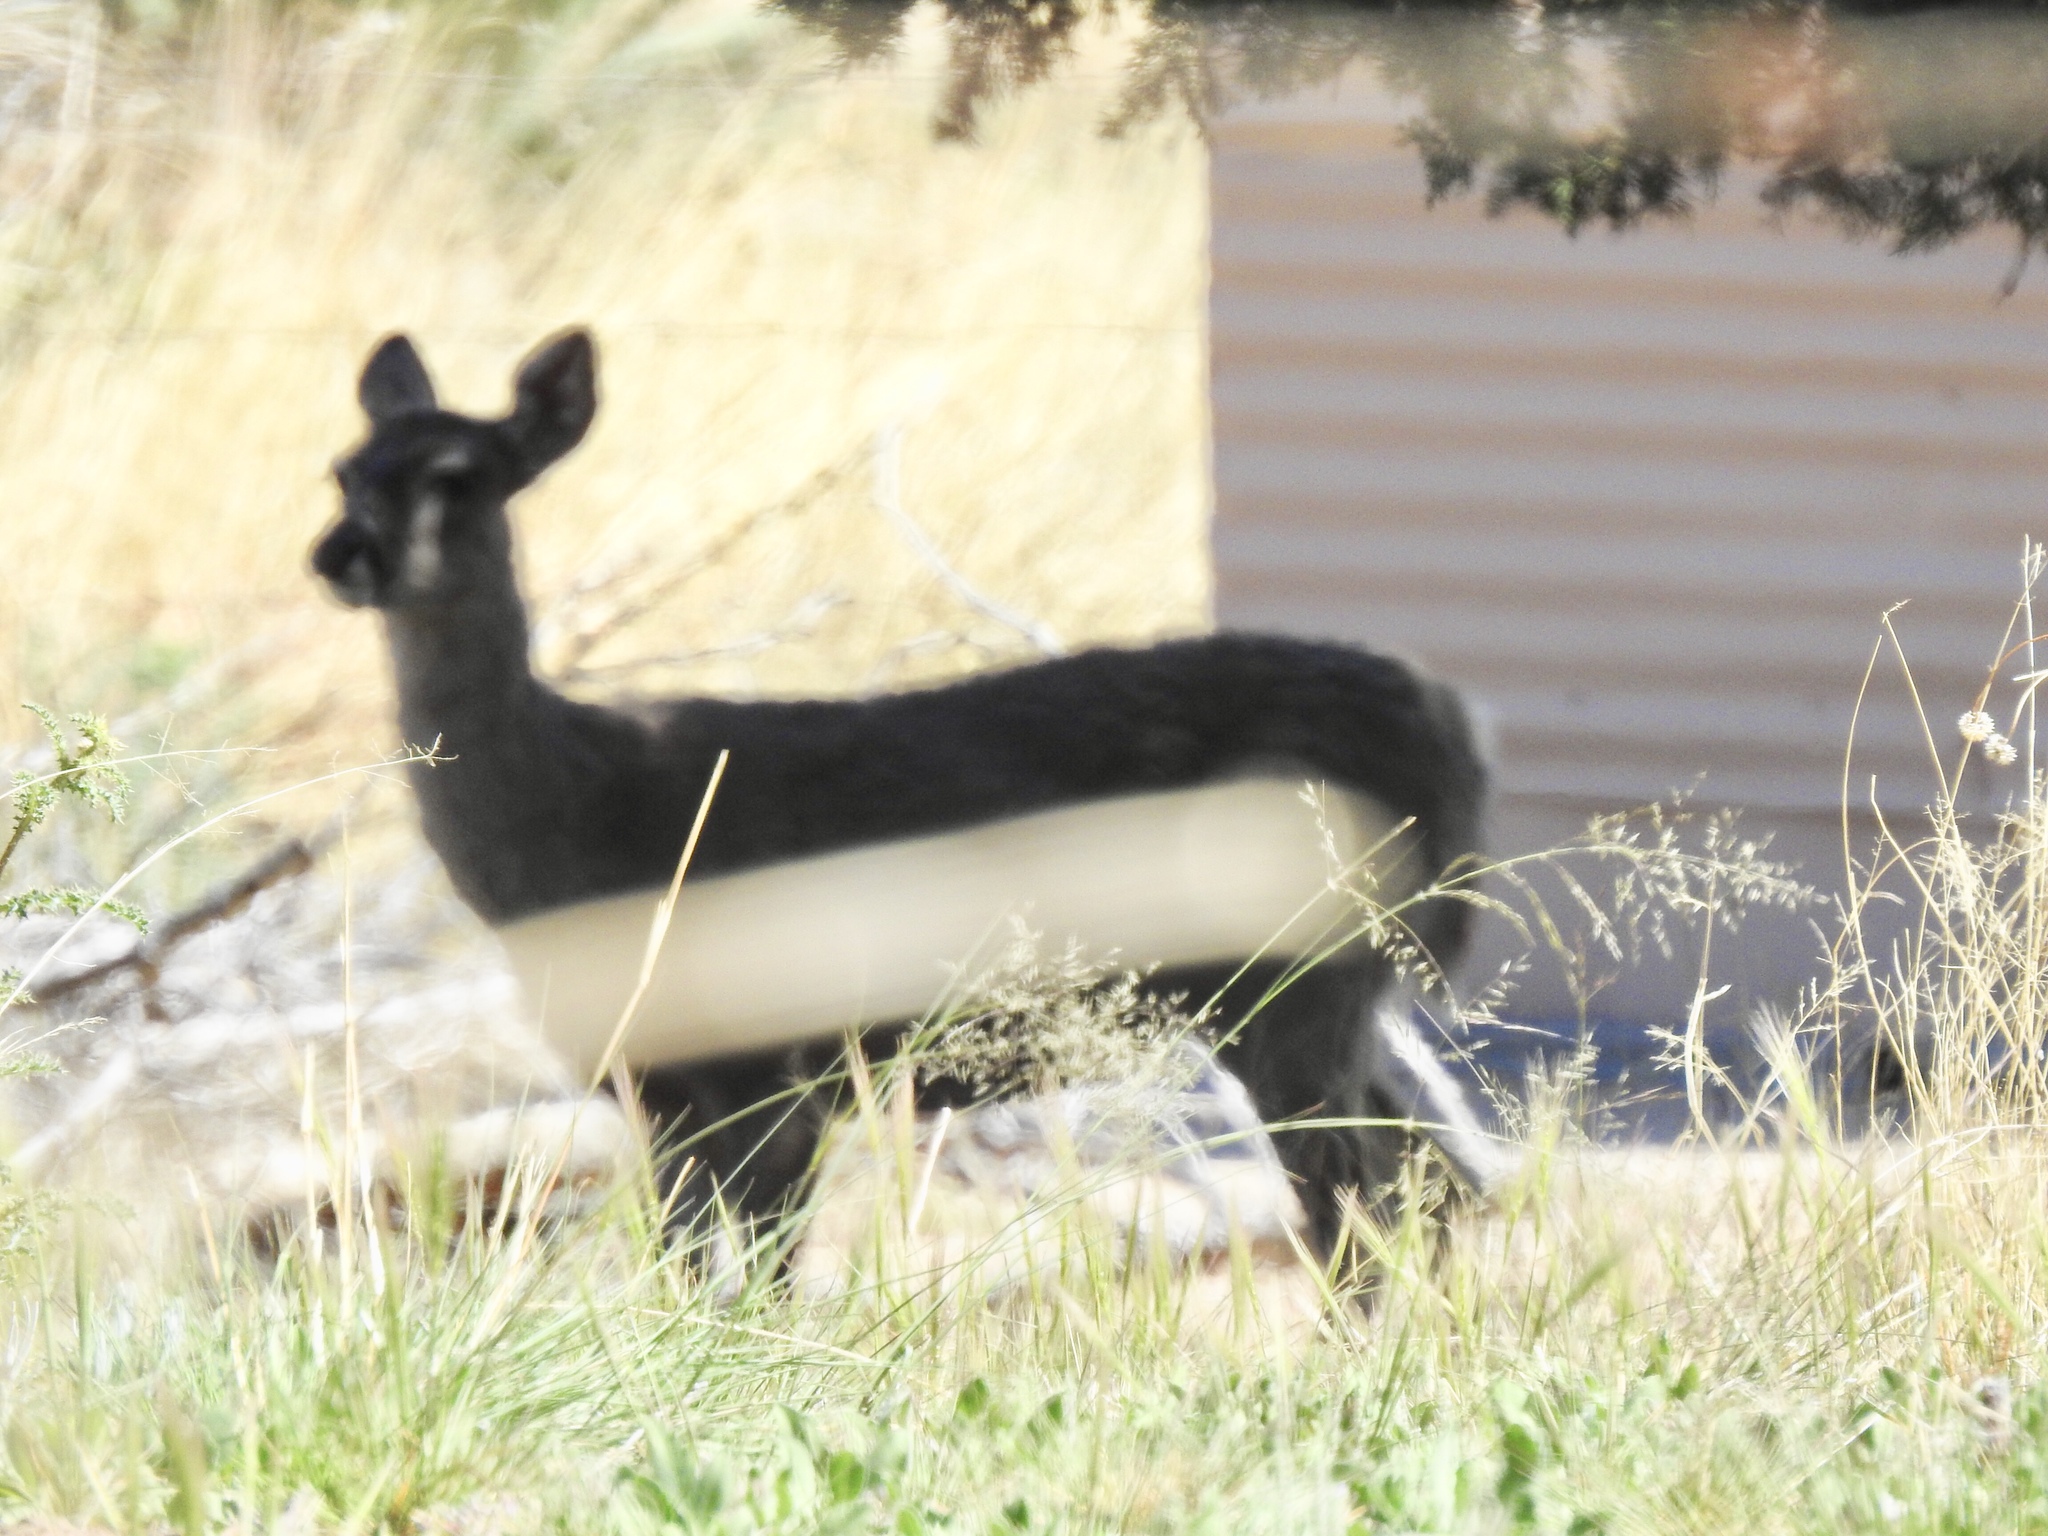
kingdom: Animalia
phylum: Chordata
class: Mammalia
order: Artiodactyla
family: Cervidae
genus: Odocoileus
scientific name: Odocoileus virginianus
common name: White-tailed deer
